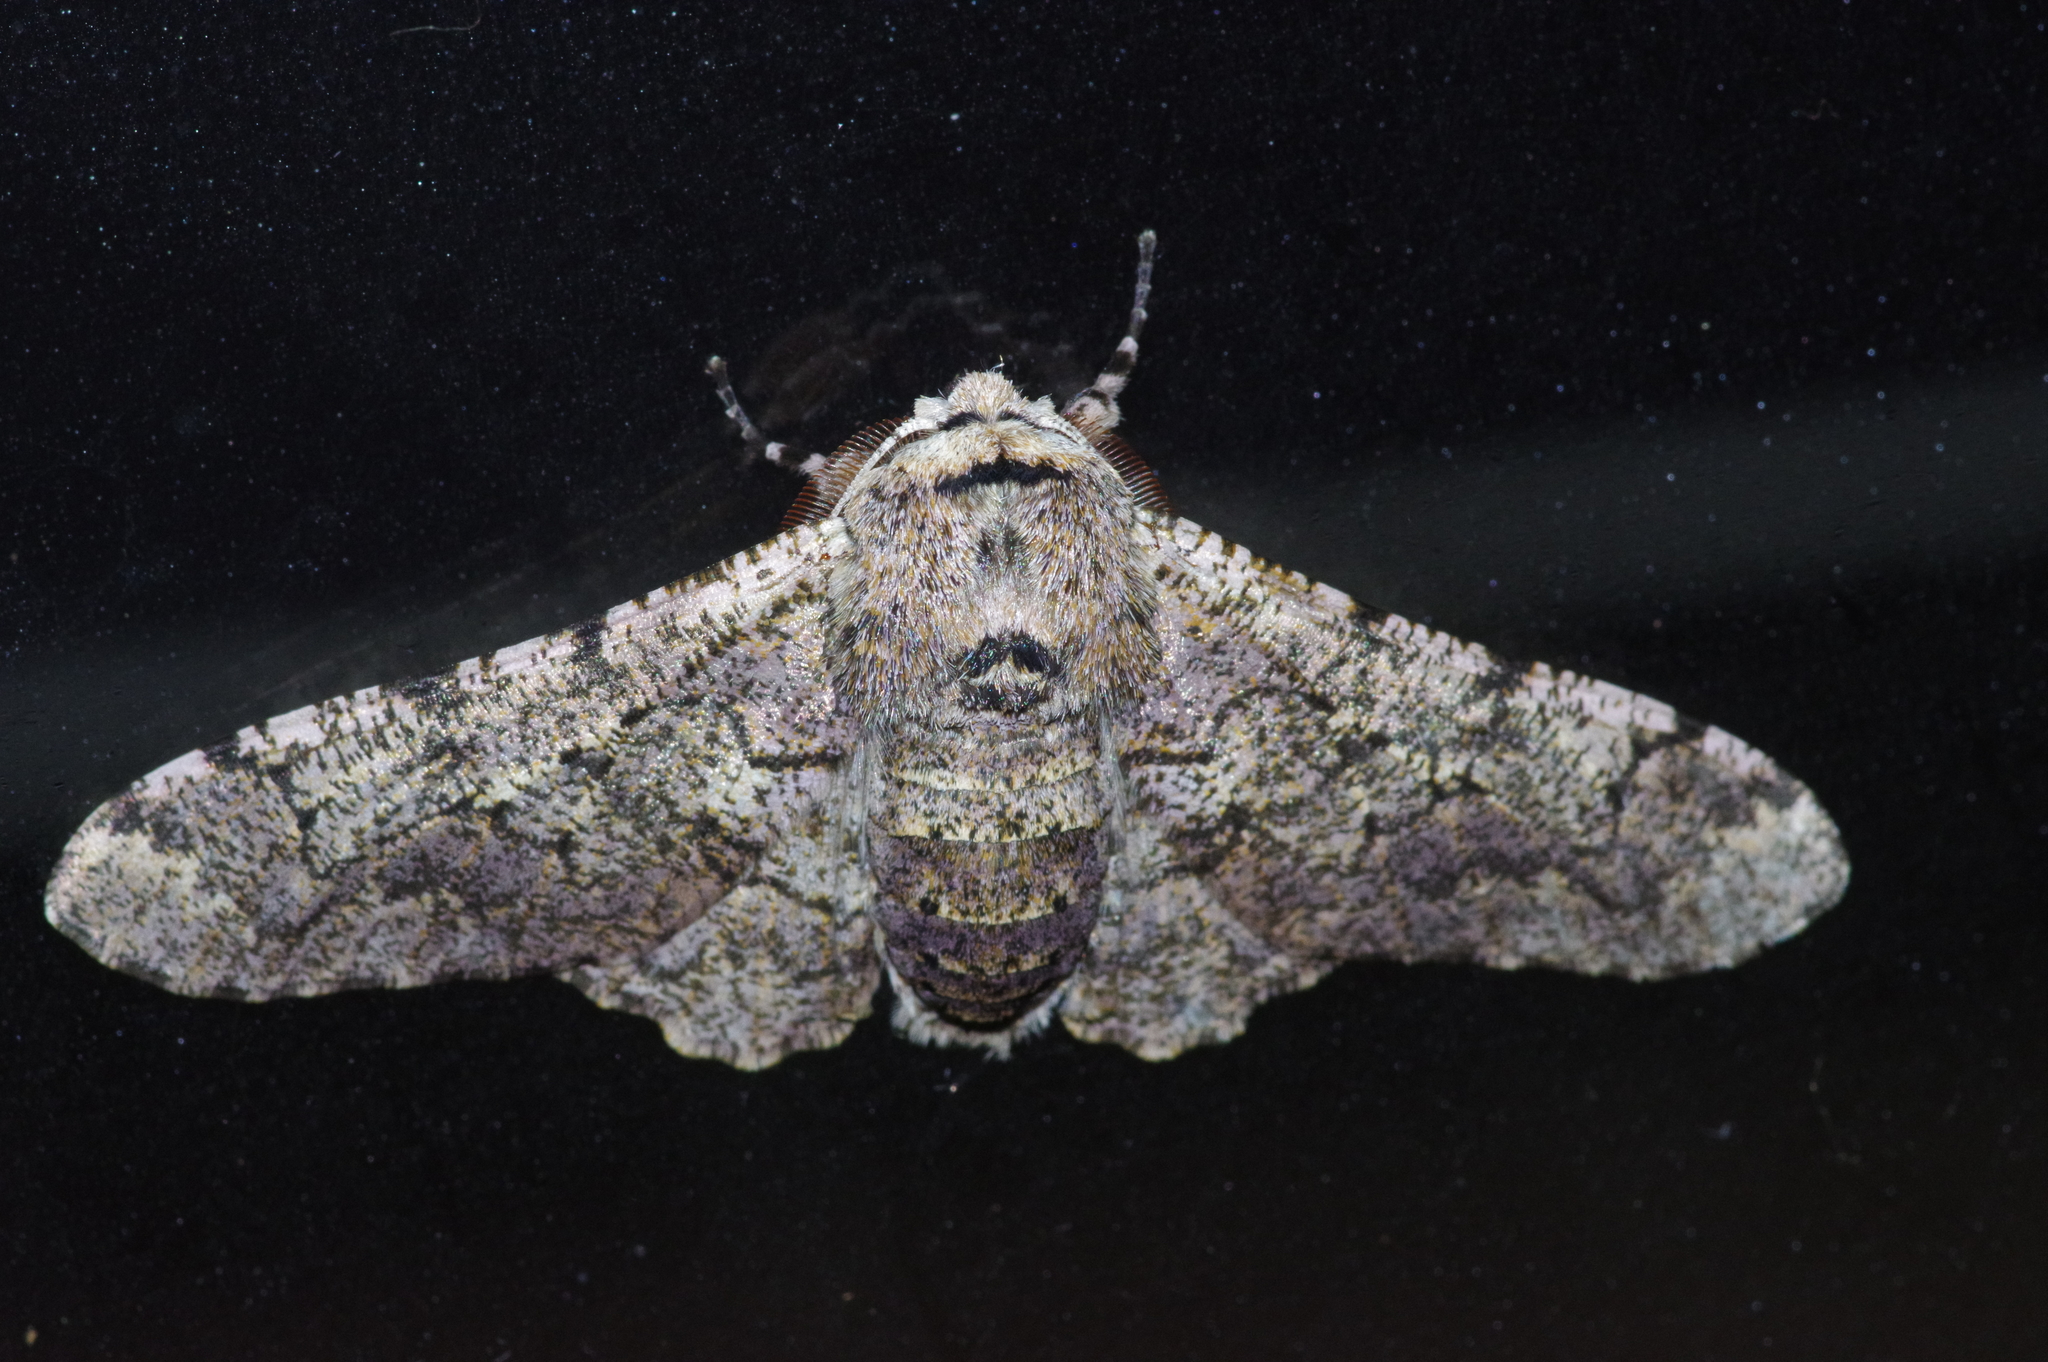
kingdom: Animalia
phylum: Arthropoda
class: Insecta
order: Lepidoptera
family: Geometridae
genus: Biston
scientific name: Biston robustum
